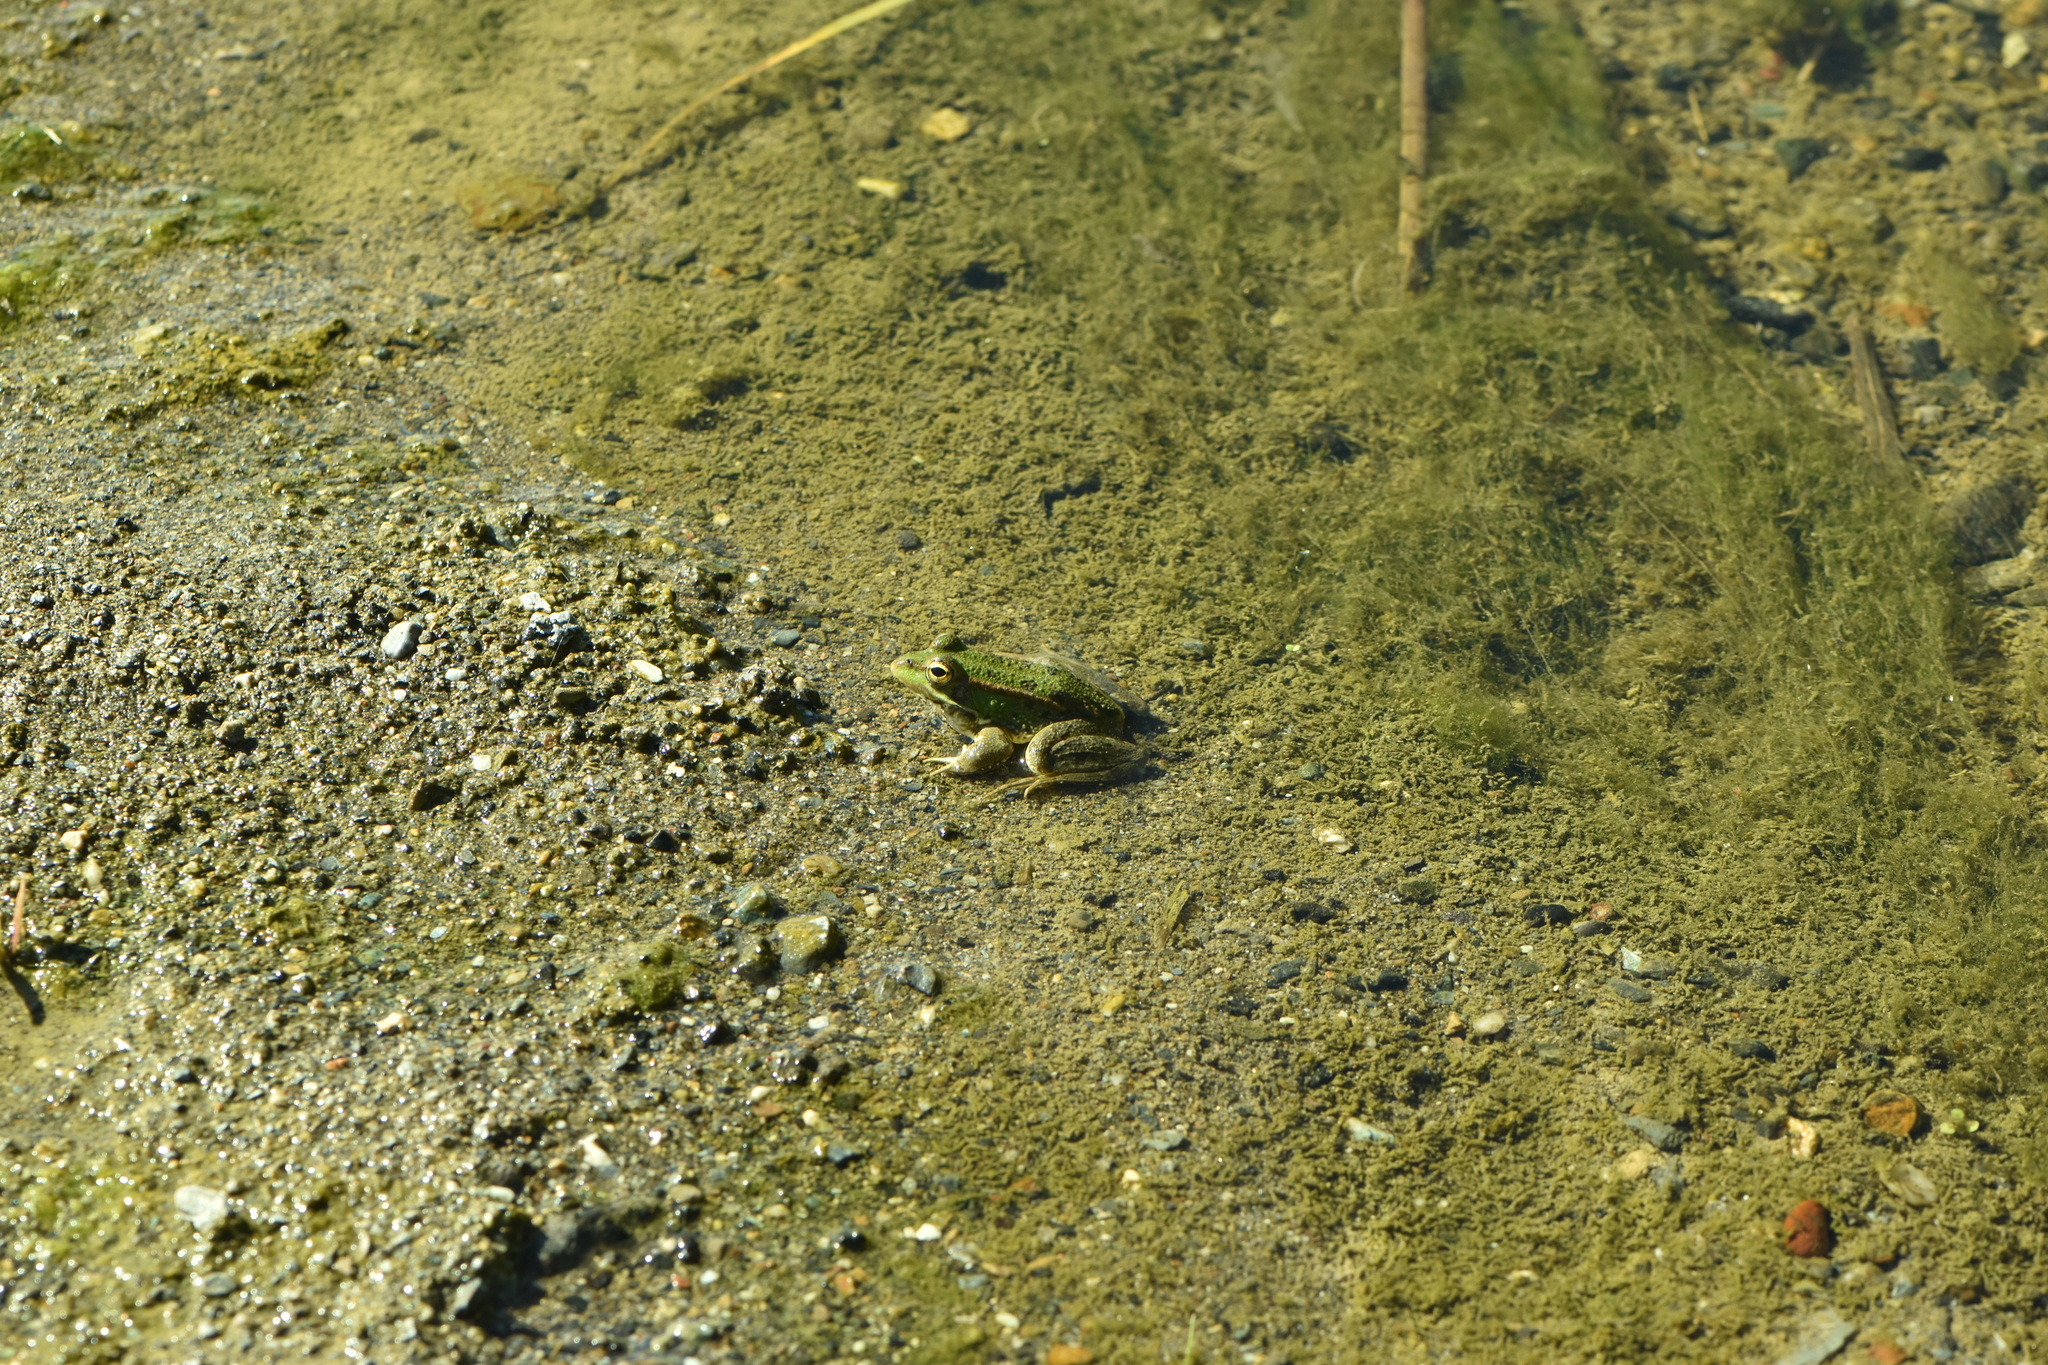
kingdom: Animalia
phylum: Chordata
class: Amphibia
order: Anura
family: Ranidae
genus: Pelophylax
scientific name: Pelophylax perezi
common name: Perez's frog
